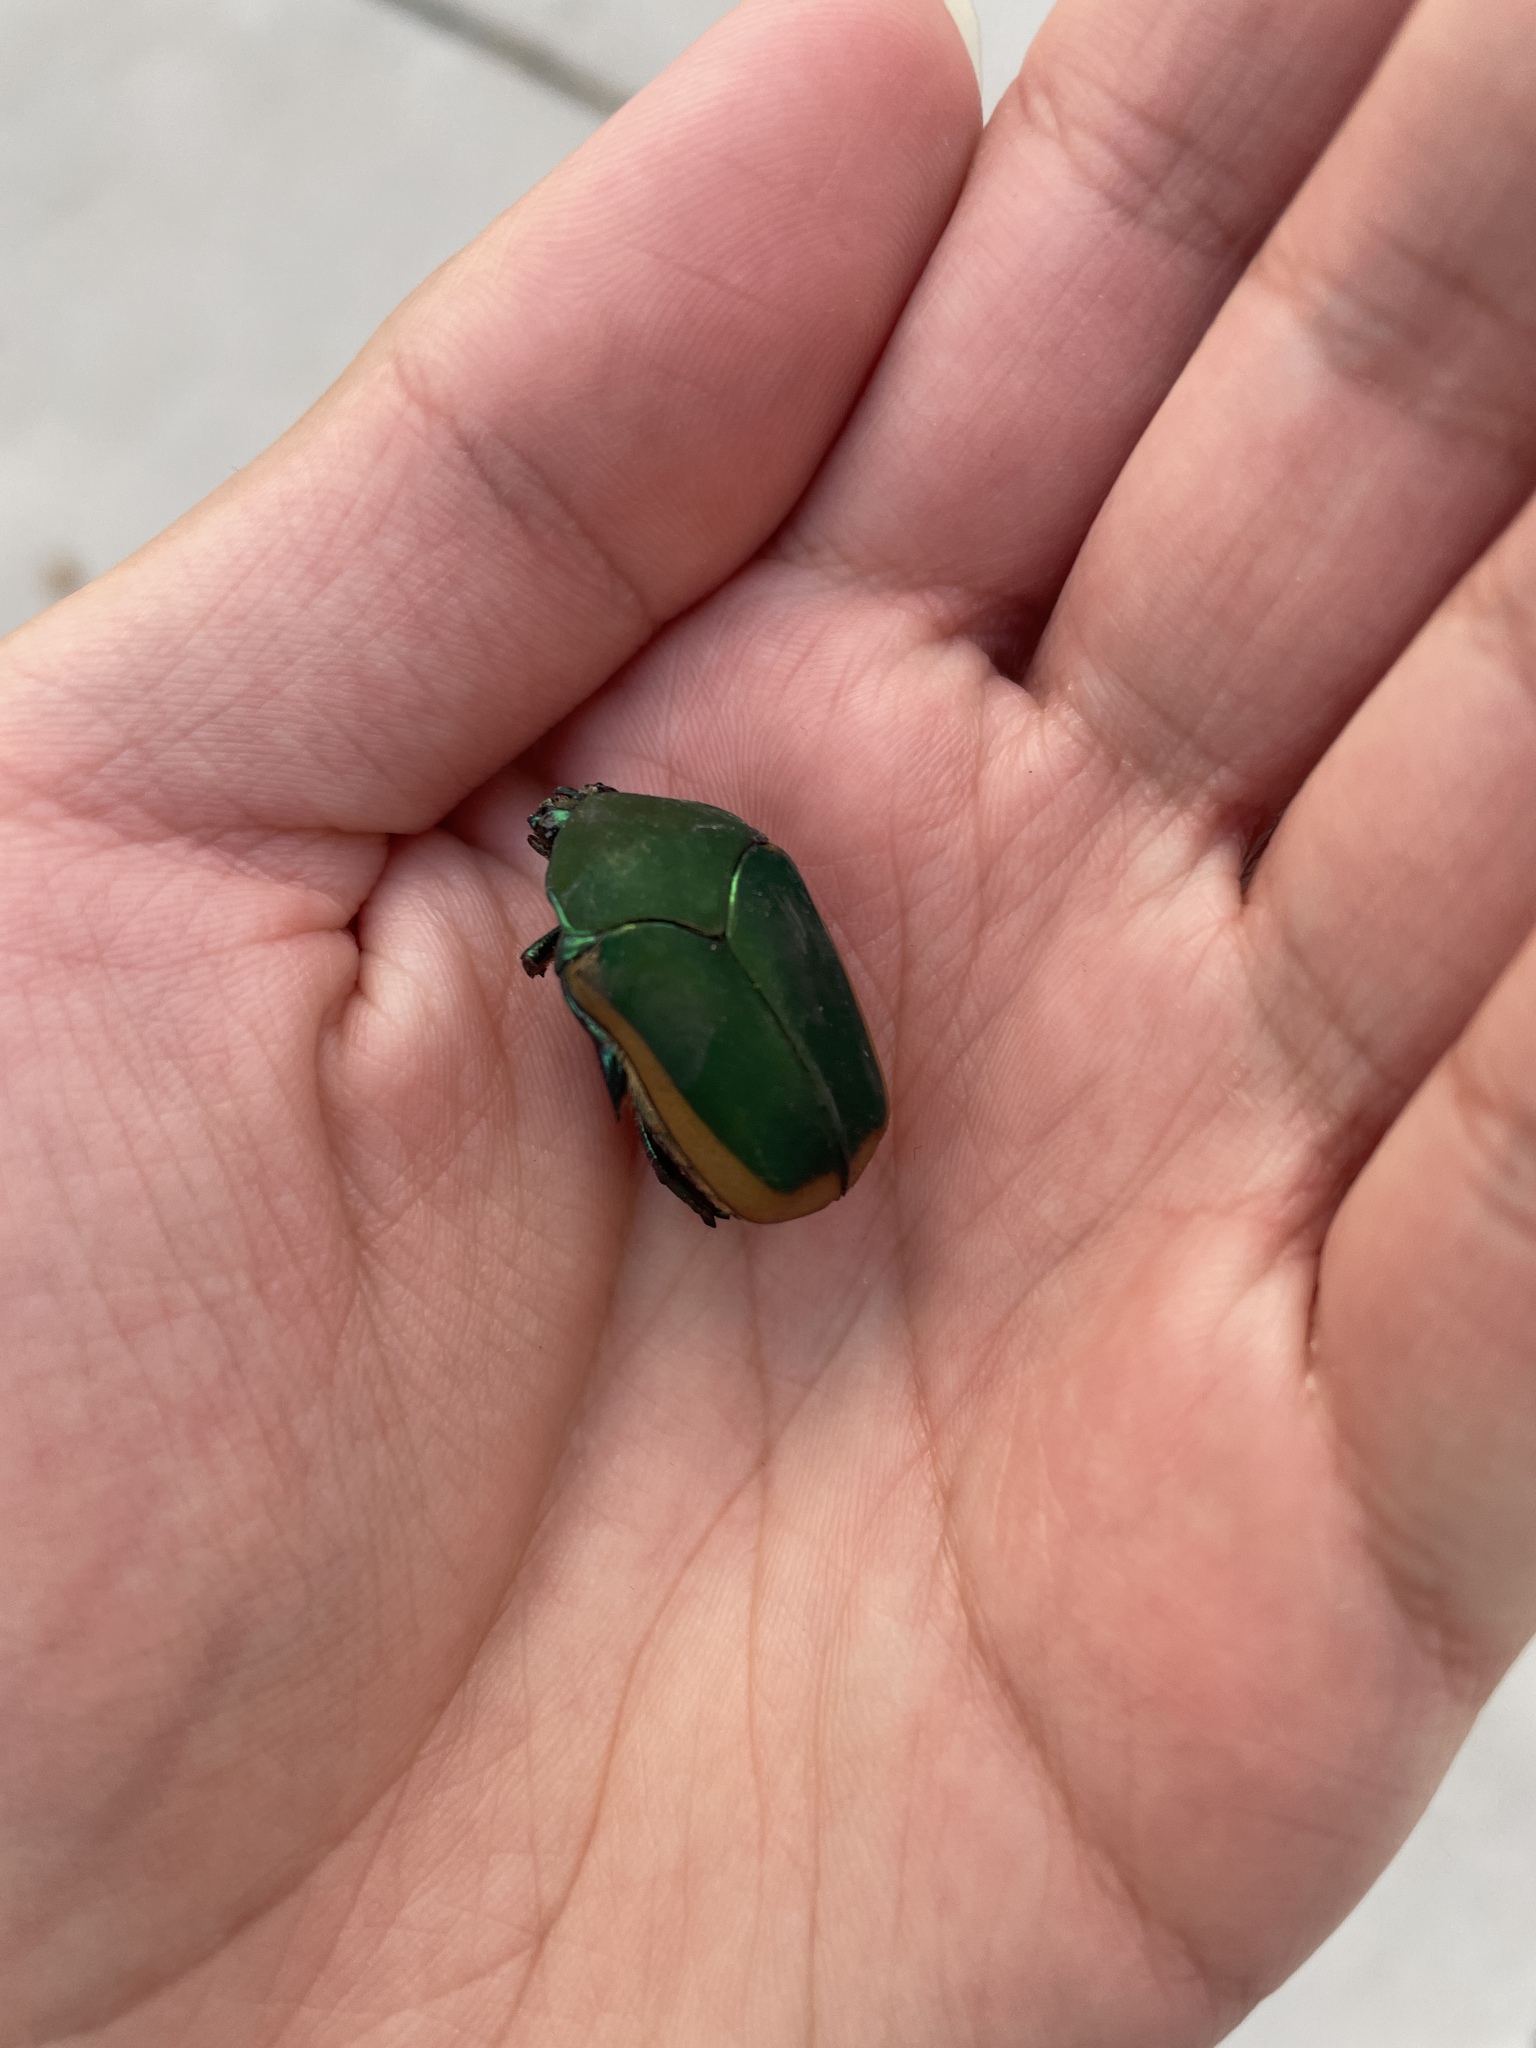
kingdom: Animalia
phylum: Arthropoda
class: Insecta
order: Coleoptera
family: Scarabaeidae
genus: Cotinis
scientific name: Cotinis mutabilis
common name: Figeater beetle
